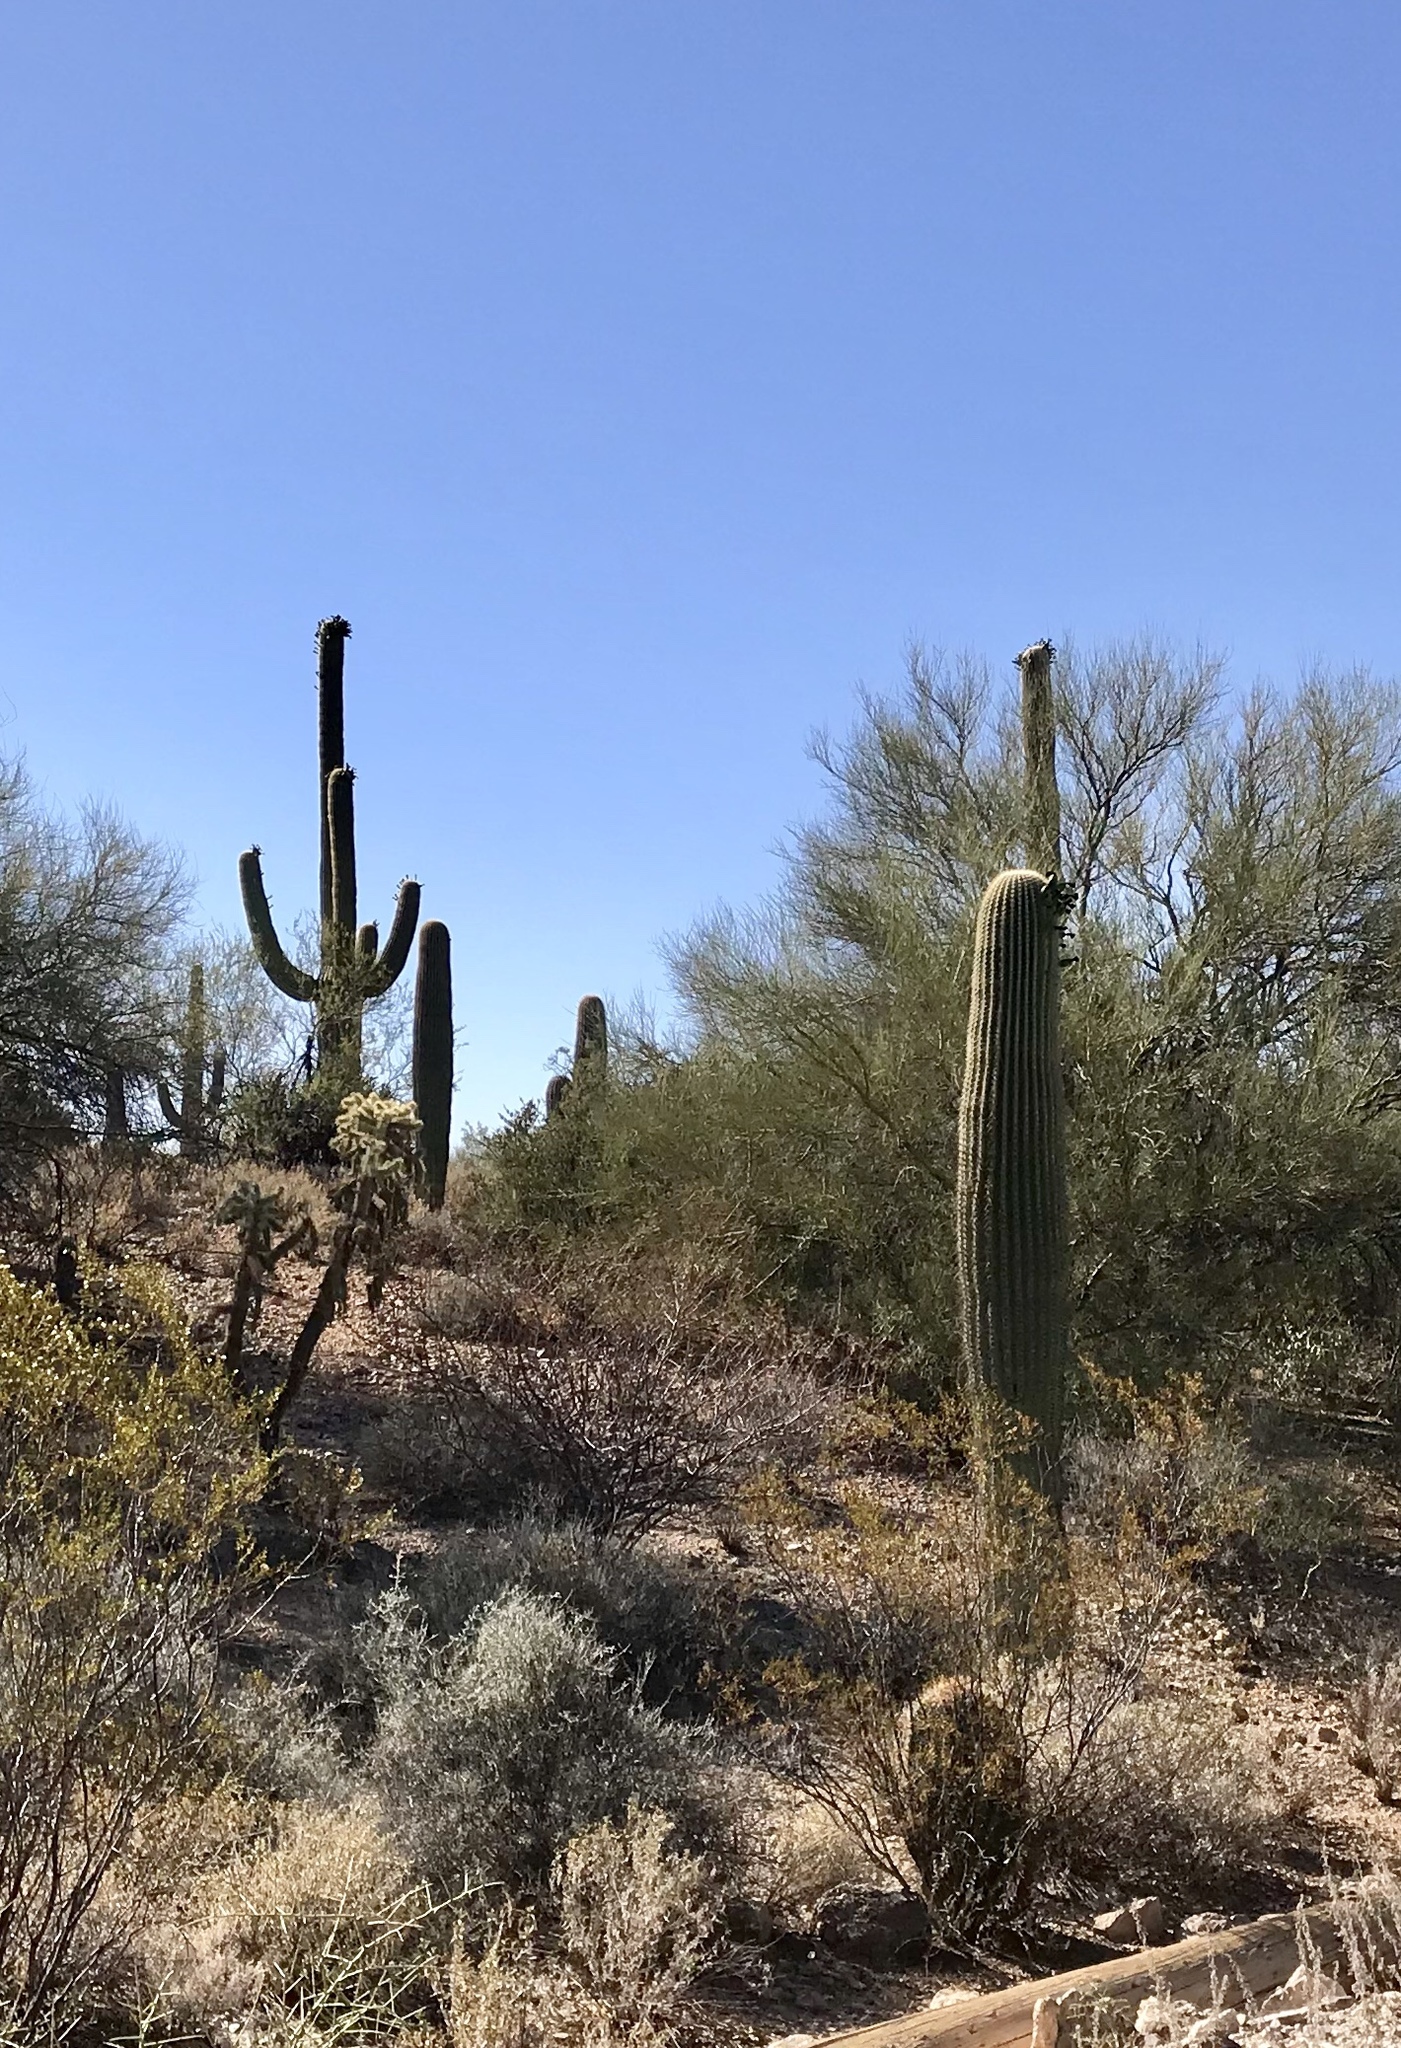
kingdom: Plantae
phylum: Tracheophyta
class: Magnoliopsida
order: Caryophyllales
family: Cactaceae
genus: Carnegiea
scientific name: Carnegiea gigantea
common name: Saguaro
